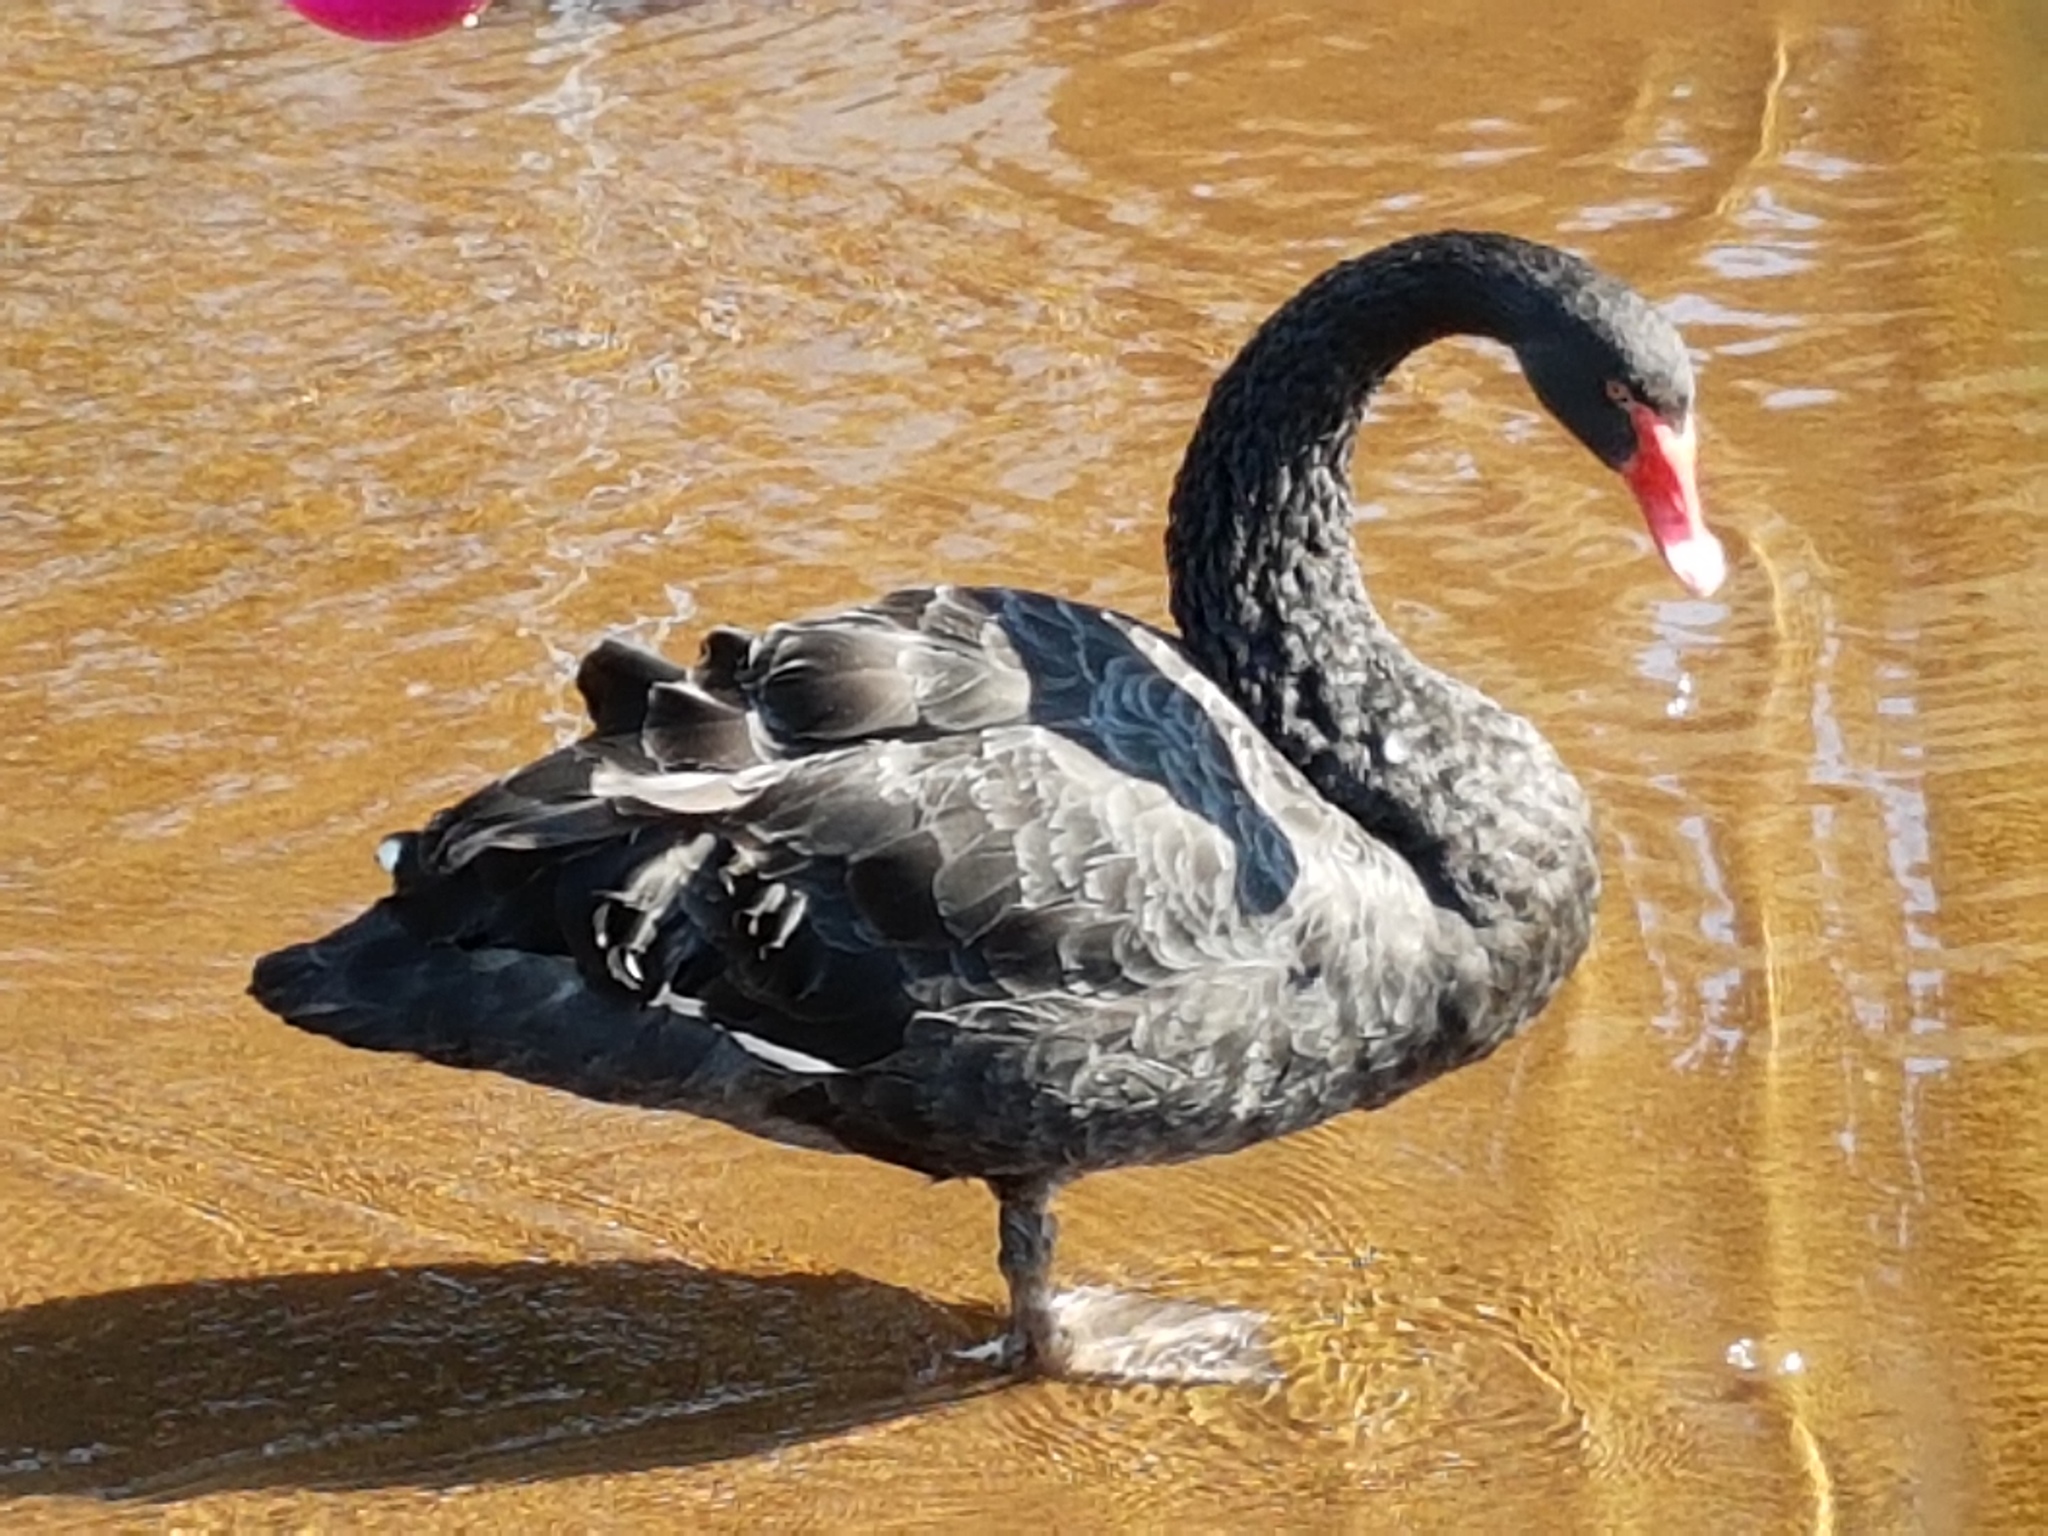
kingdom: Animalia
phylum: Chordata
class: Aves
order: Anseriformes
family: Anatidae
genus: Cygnus
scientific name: Cygnus atratus
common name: Black swan
